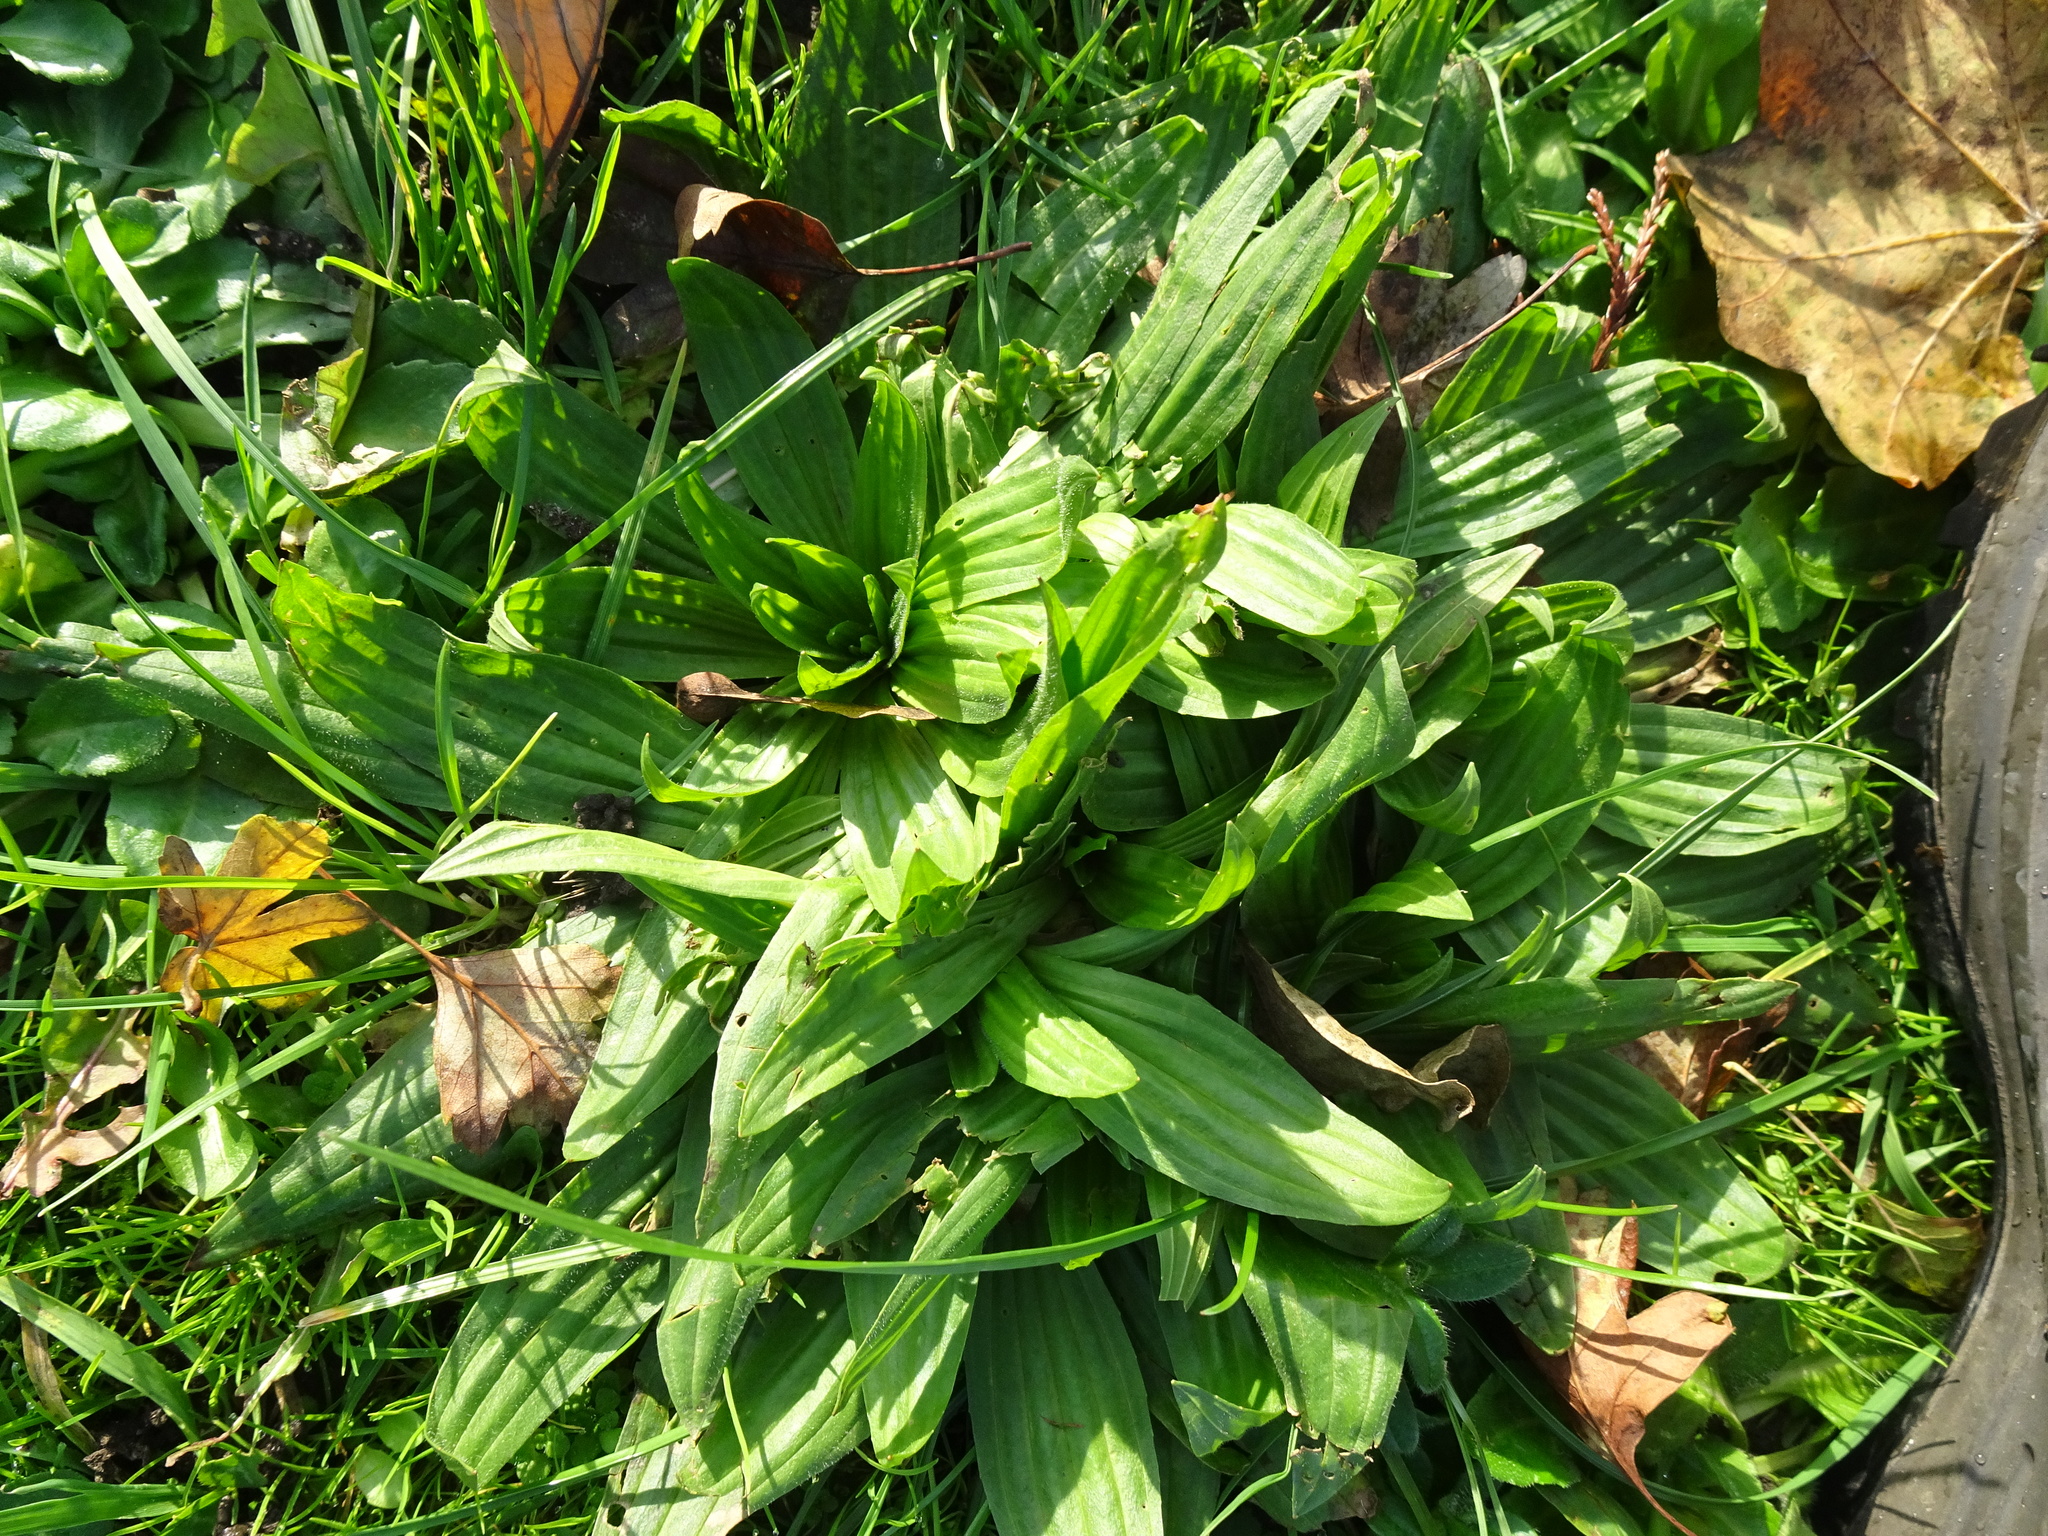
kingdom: Plantae
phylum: Tracheophyta
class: Magnoliopsida
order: Lamiales
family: Plantaginaceae
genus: Plantago
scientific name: Plantago lanceolata
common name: Ribwort plantain
